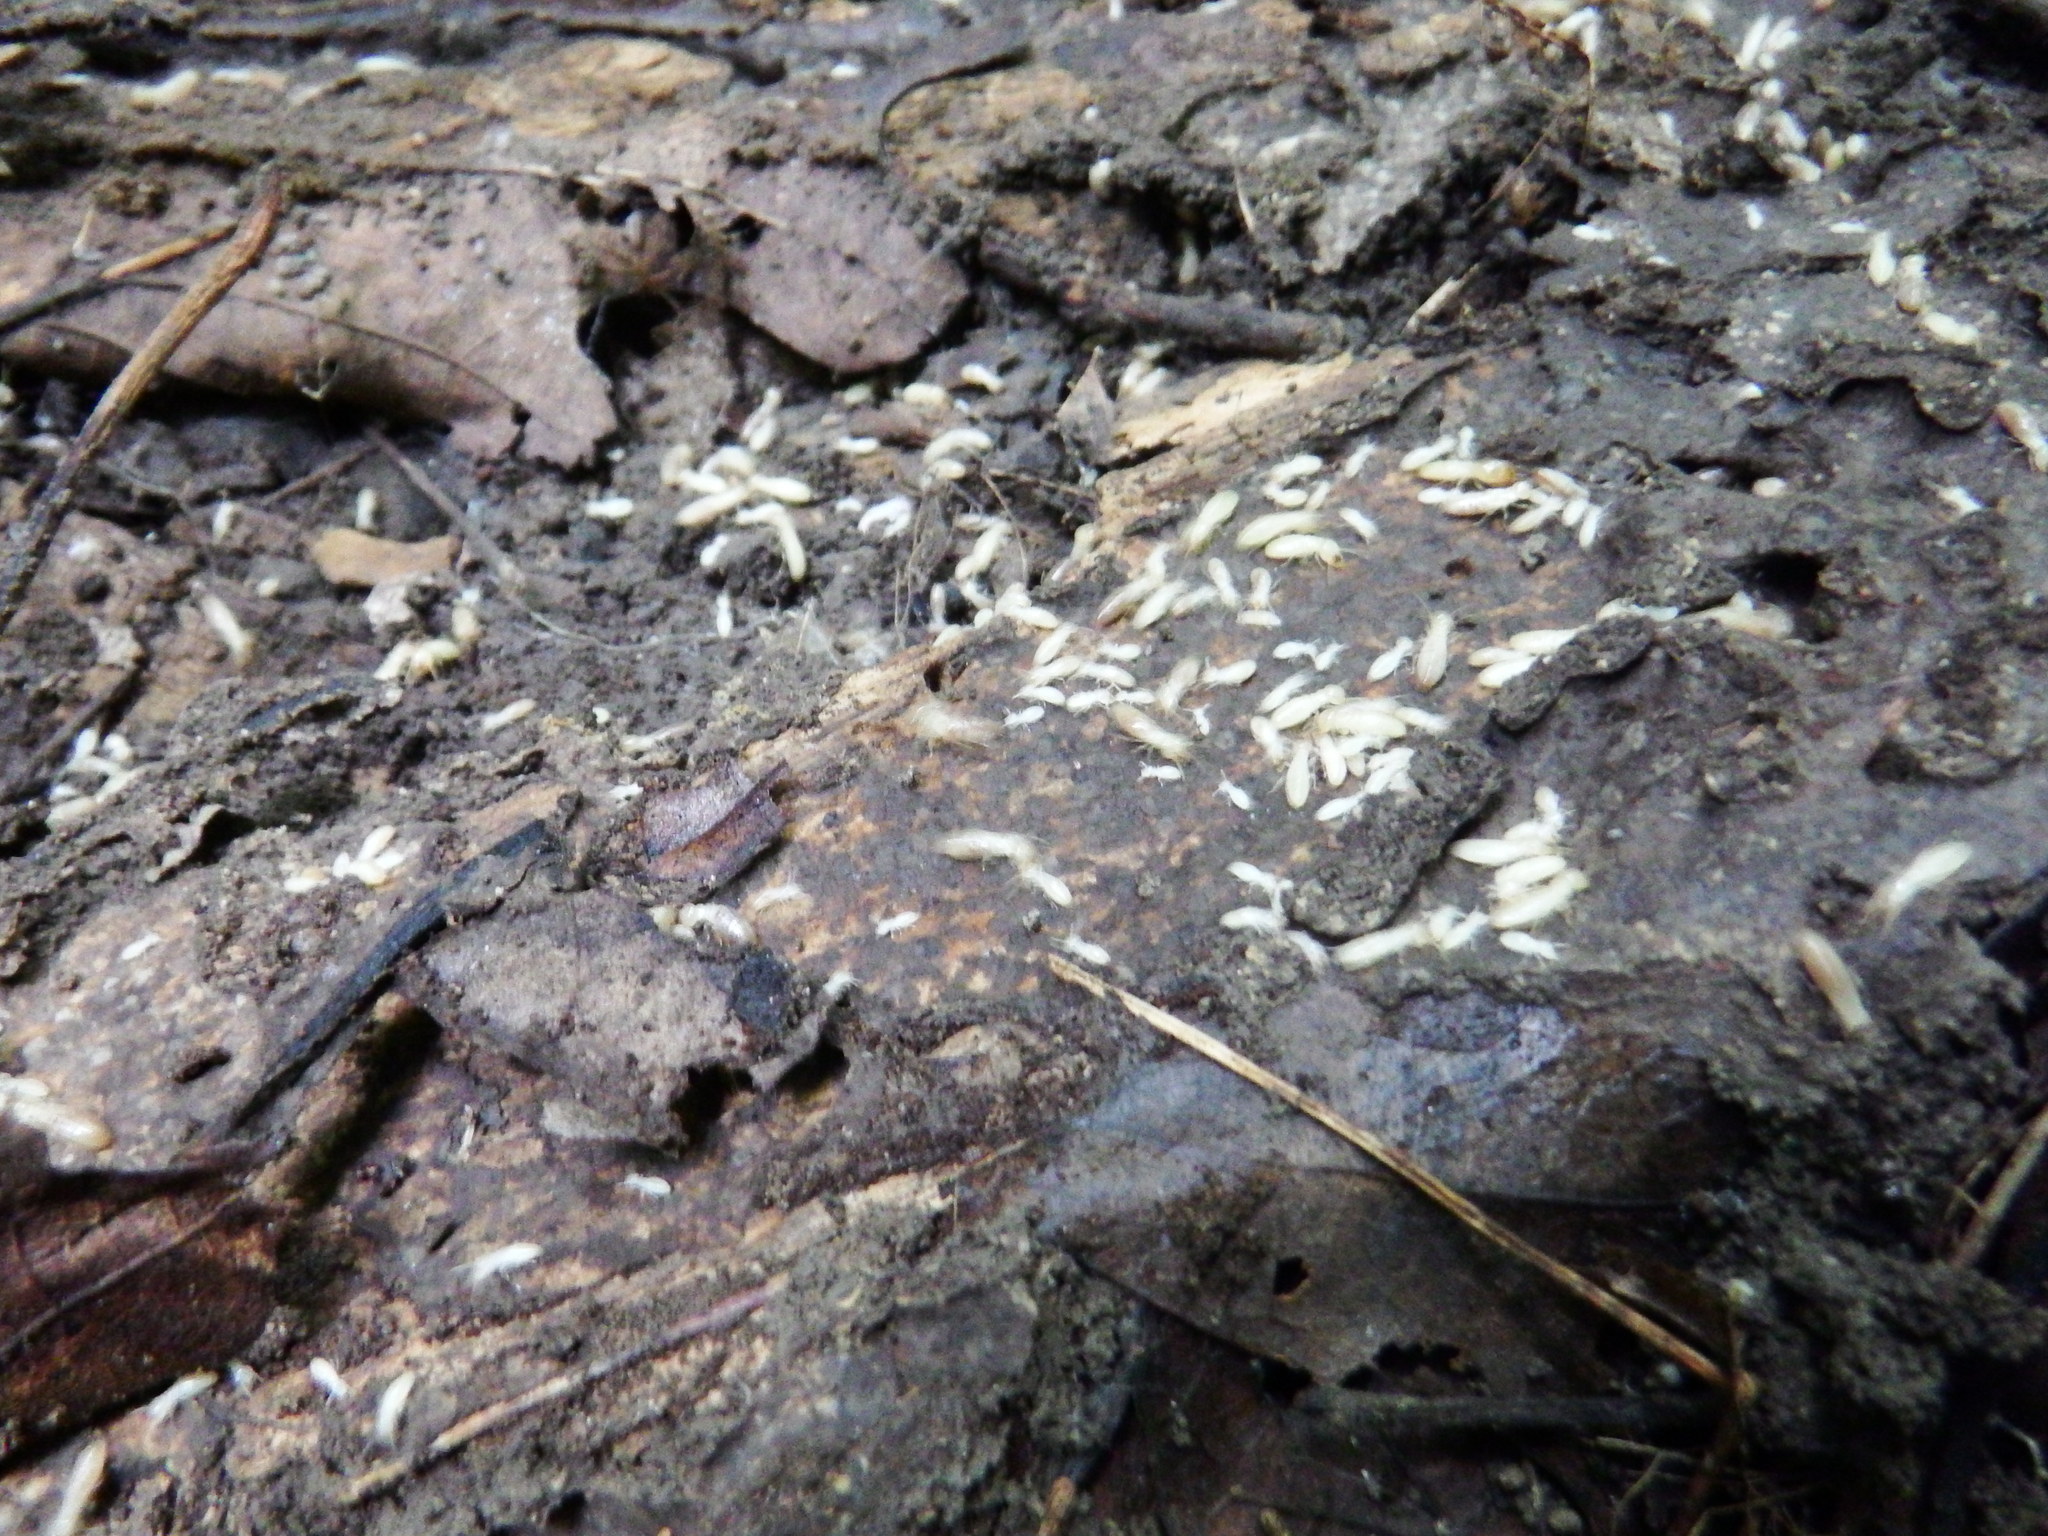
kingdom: Animalia
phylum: Arthropoda
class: Insecta
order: Blattodea
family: Rhinotermitidae
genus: Reticulitermes
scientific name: Reticulitermes flavipes
